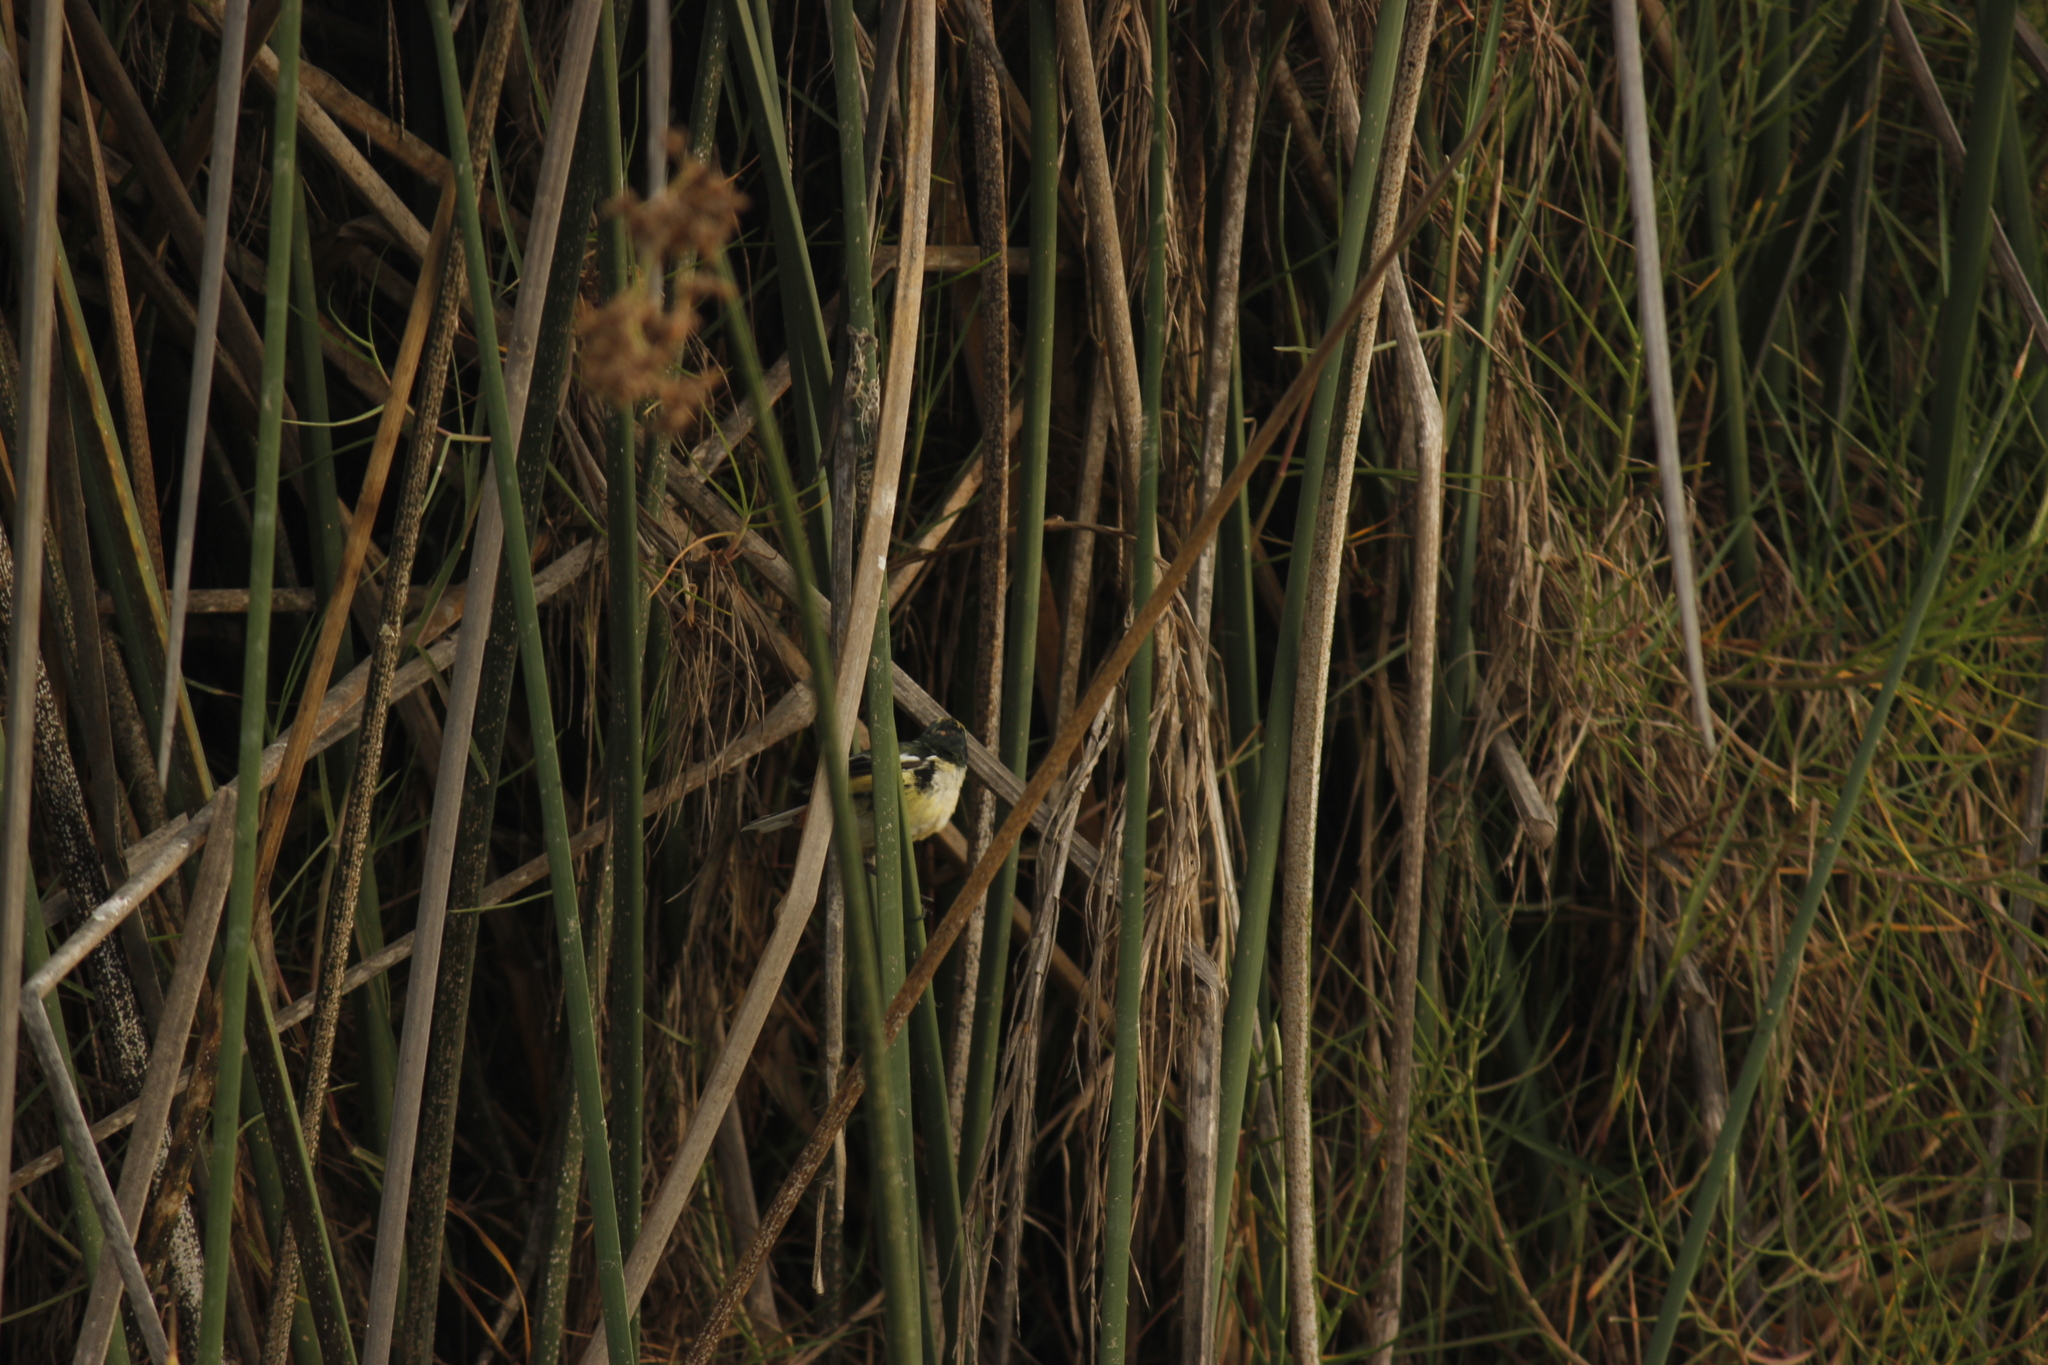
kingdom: Animalia
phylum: Chordata
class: Aves
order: Passeriformes
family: Tyrannidae
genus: Tachuris
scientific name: Tachuris rubrigastra
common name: Many-colored rush tyrant
